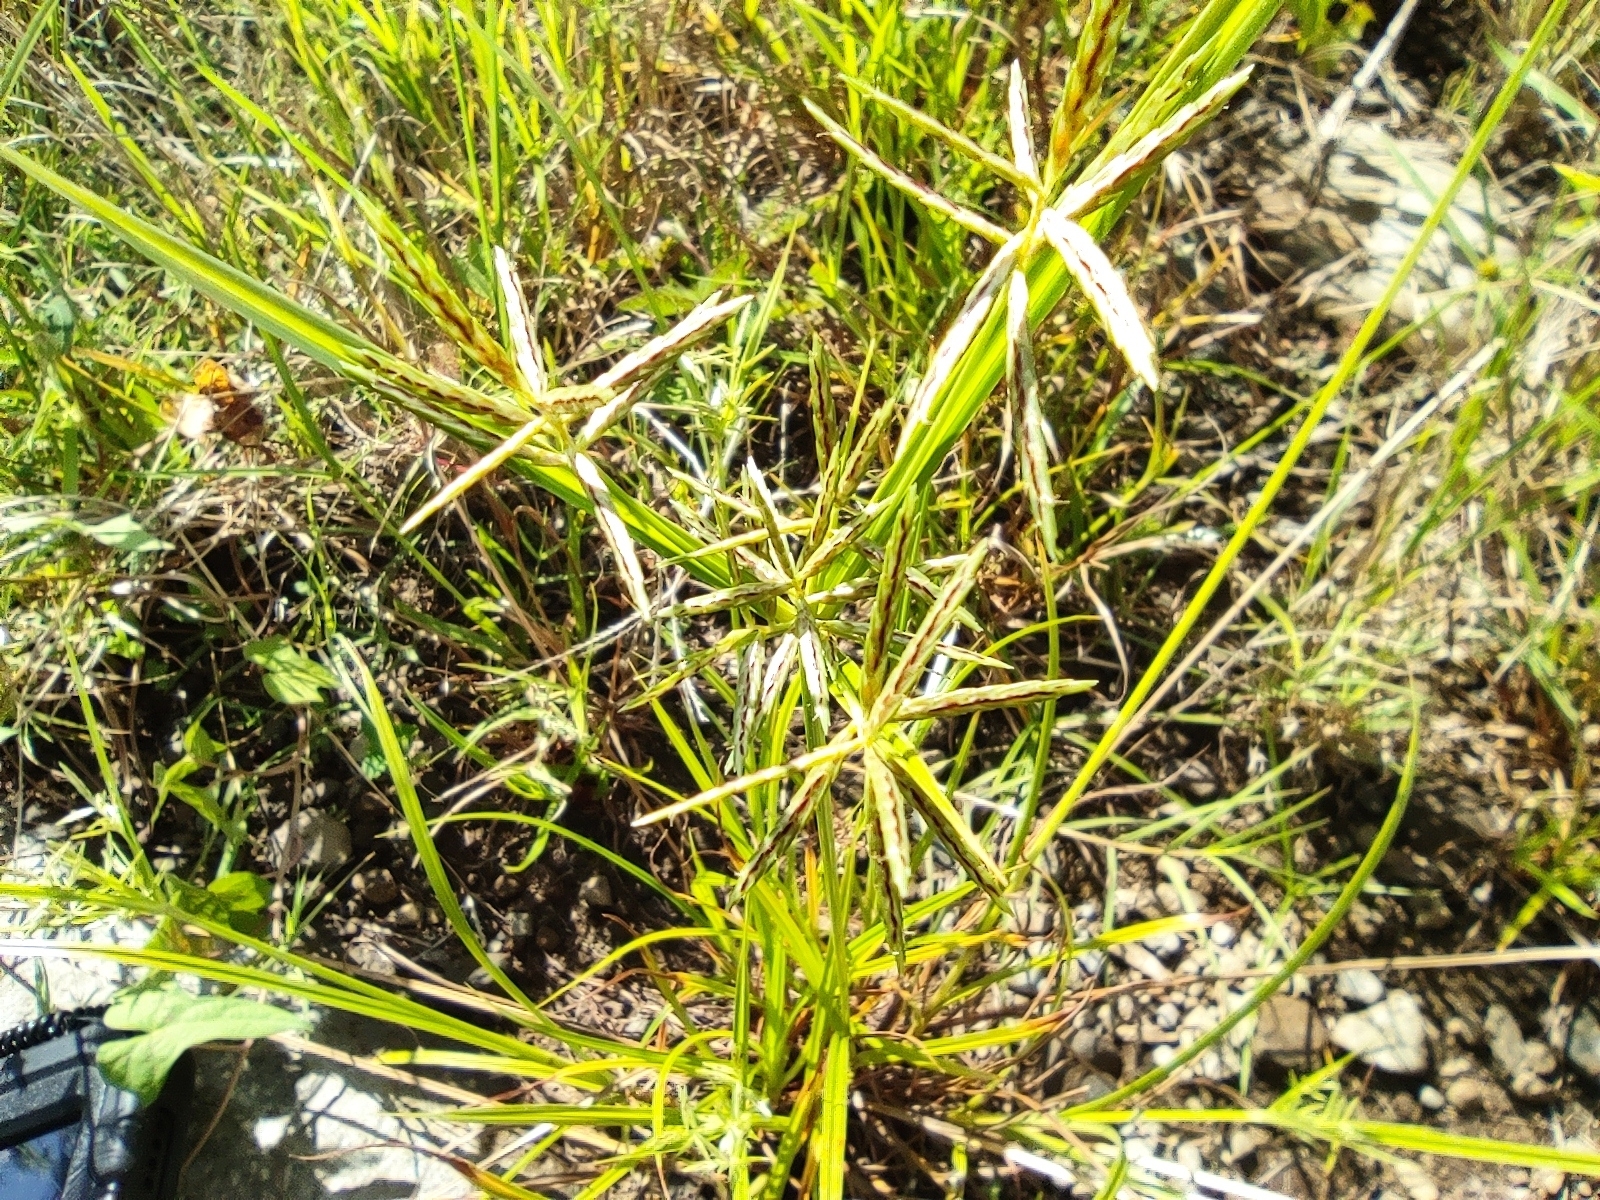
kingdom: Plantae
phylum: Tracheophyta
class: Liliopsida
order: Poales
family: Cyperaceae
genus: Cyperus
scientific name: Cyperus sphacelatus
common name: Roadside flatsedge
